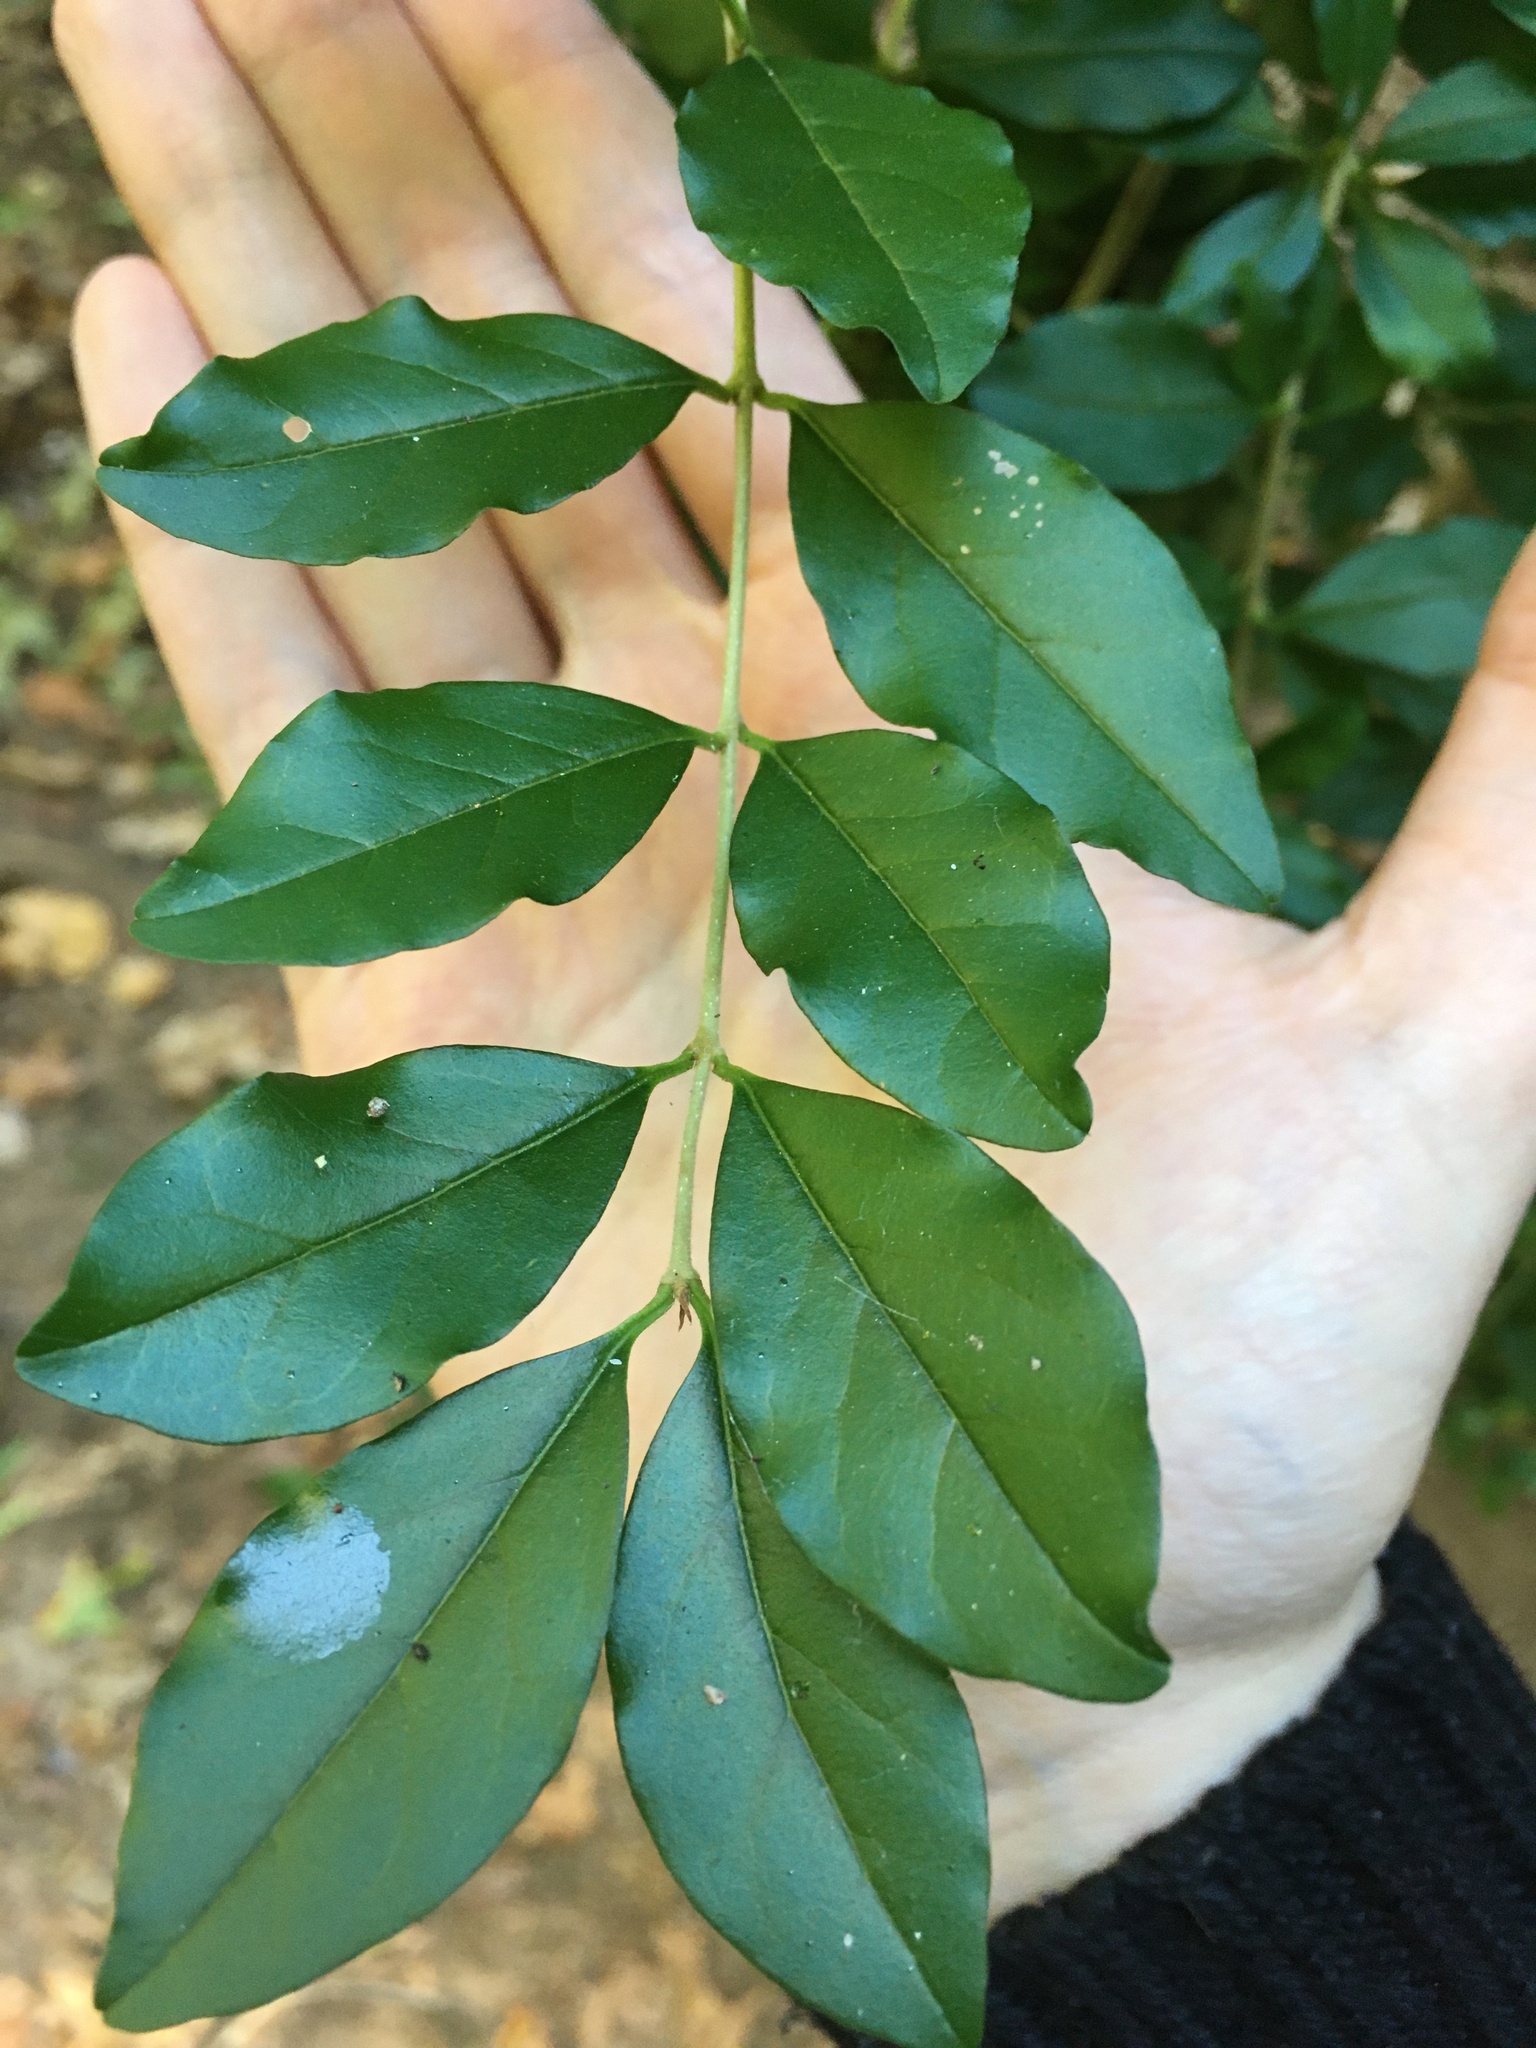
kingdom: Plantae
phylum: Tracheophyta
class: Magnoliopsida
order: Lamiales
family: Oleaceae
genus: Ligustrum
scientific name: Ligustrum sinense
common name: Chinese privet
